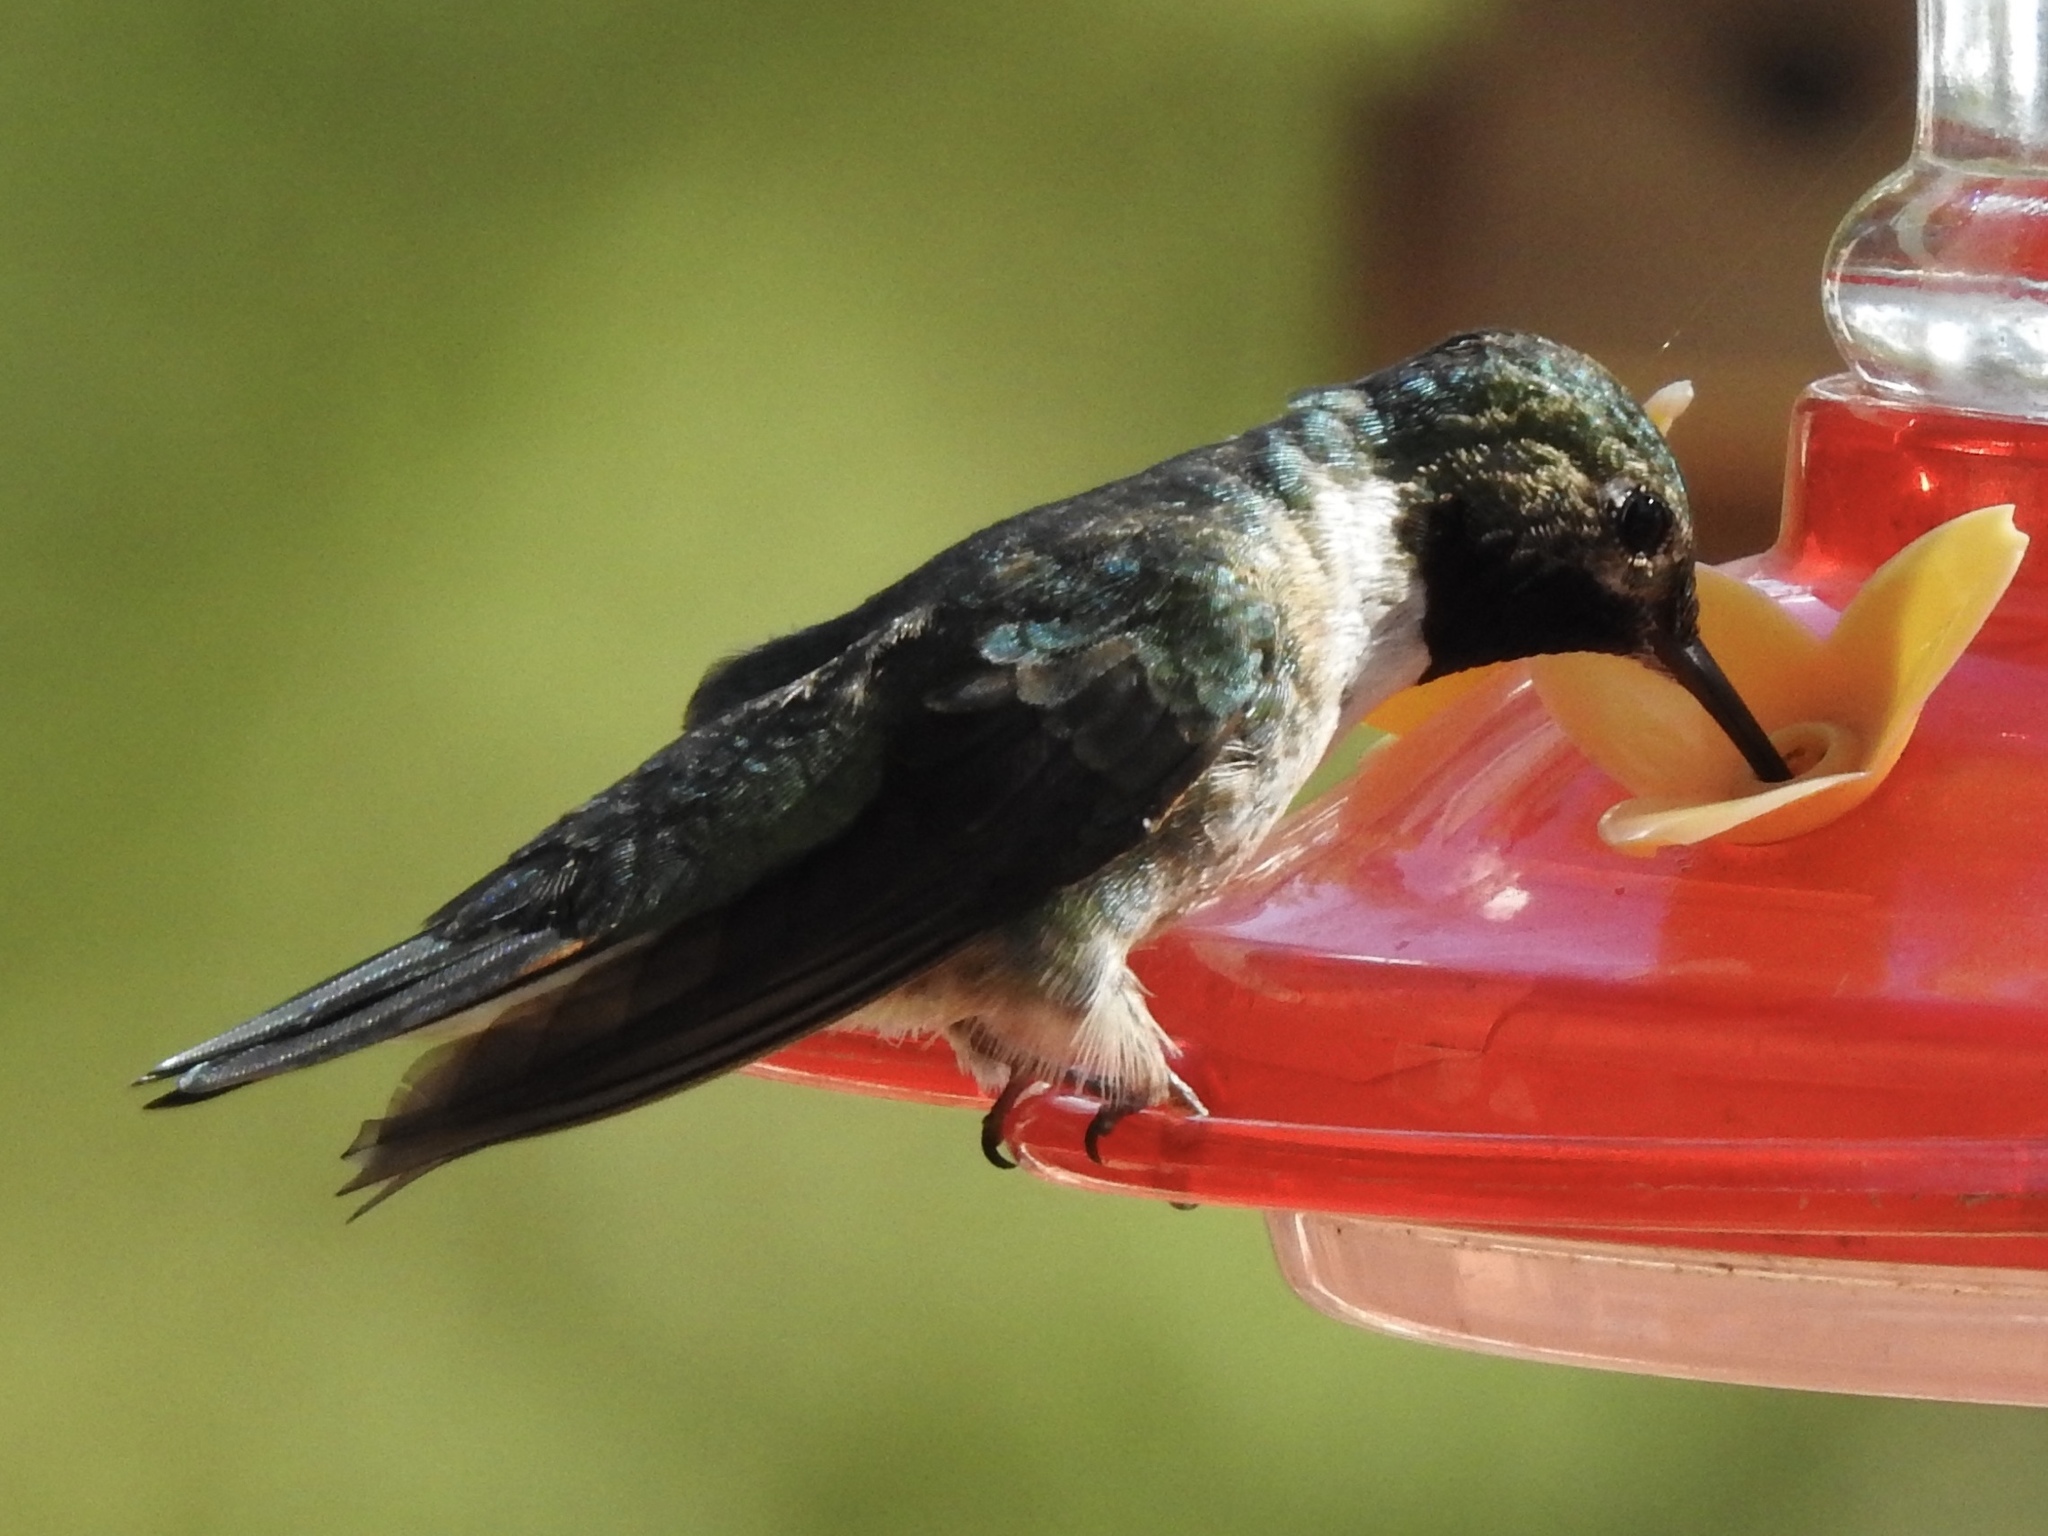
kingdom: Animalia
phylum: Chordata
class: Aves
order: Apodiformes
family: Trochilidae
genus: Archilochus
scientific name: Archilochus alexandri
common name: Black-chinned hummingbird
